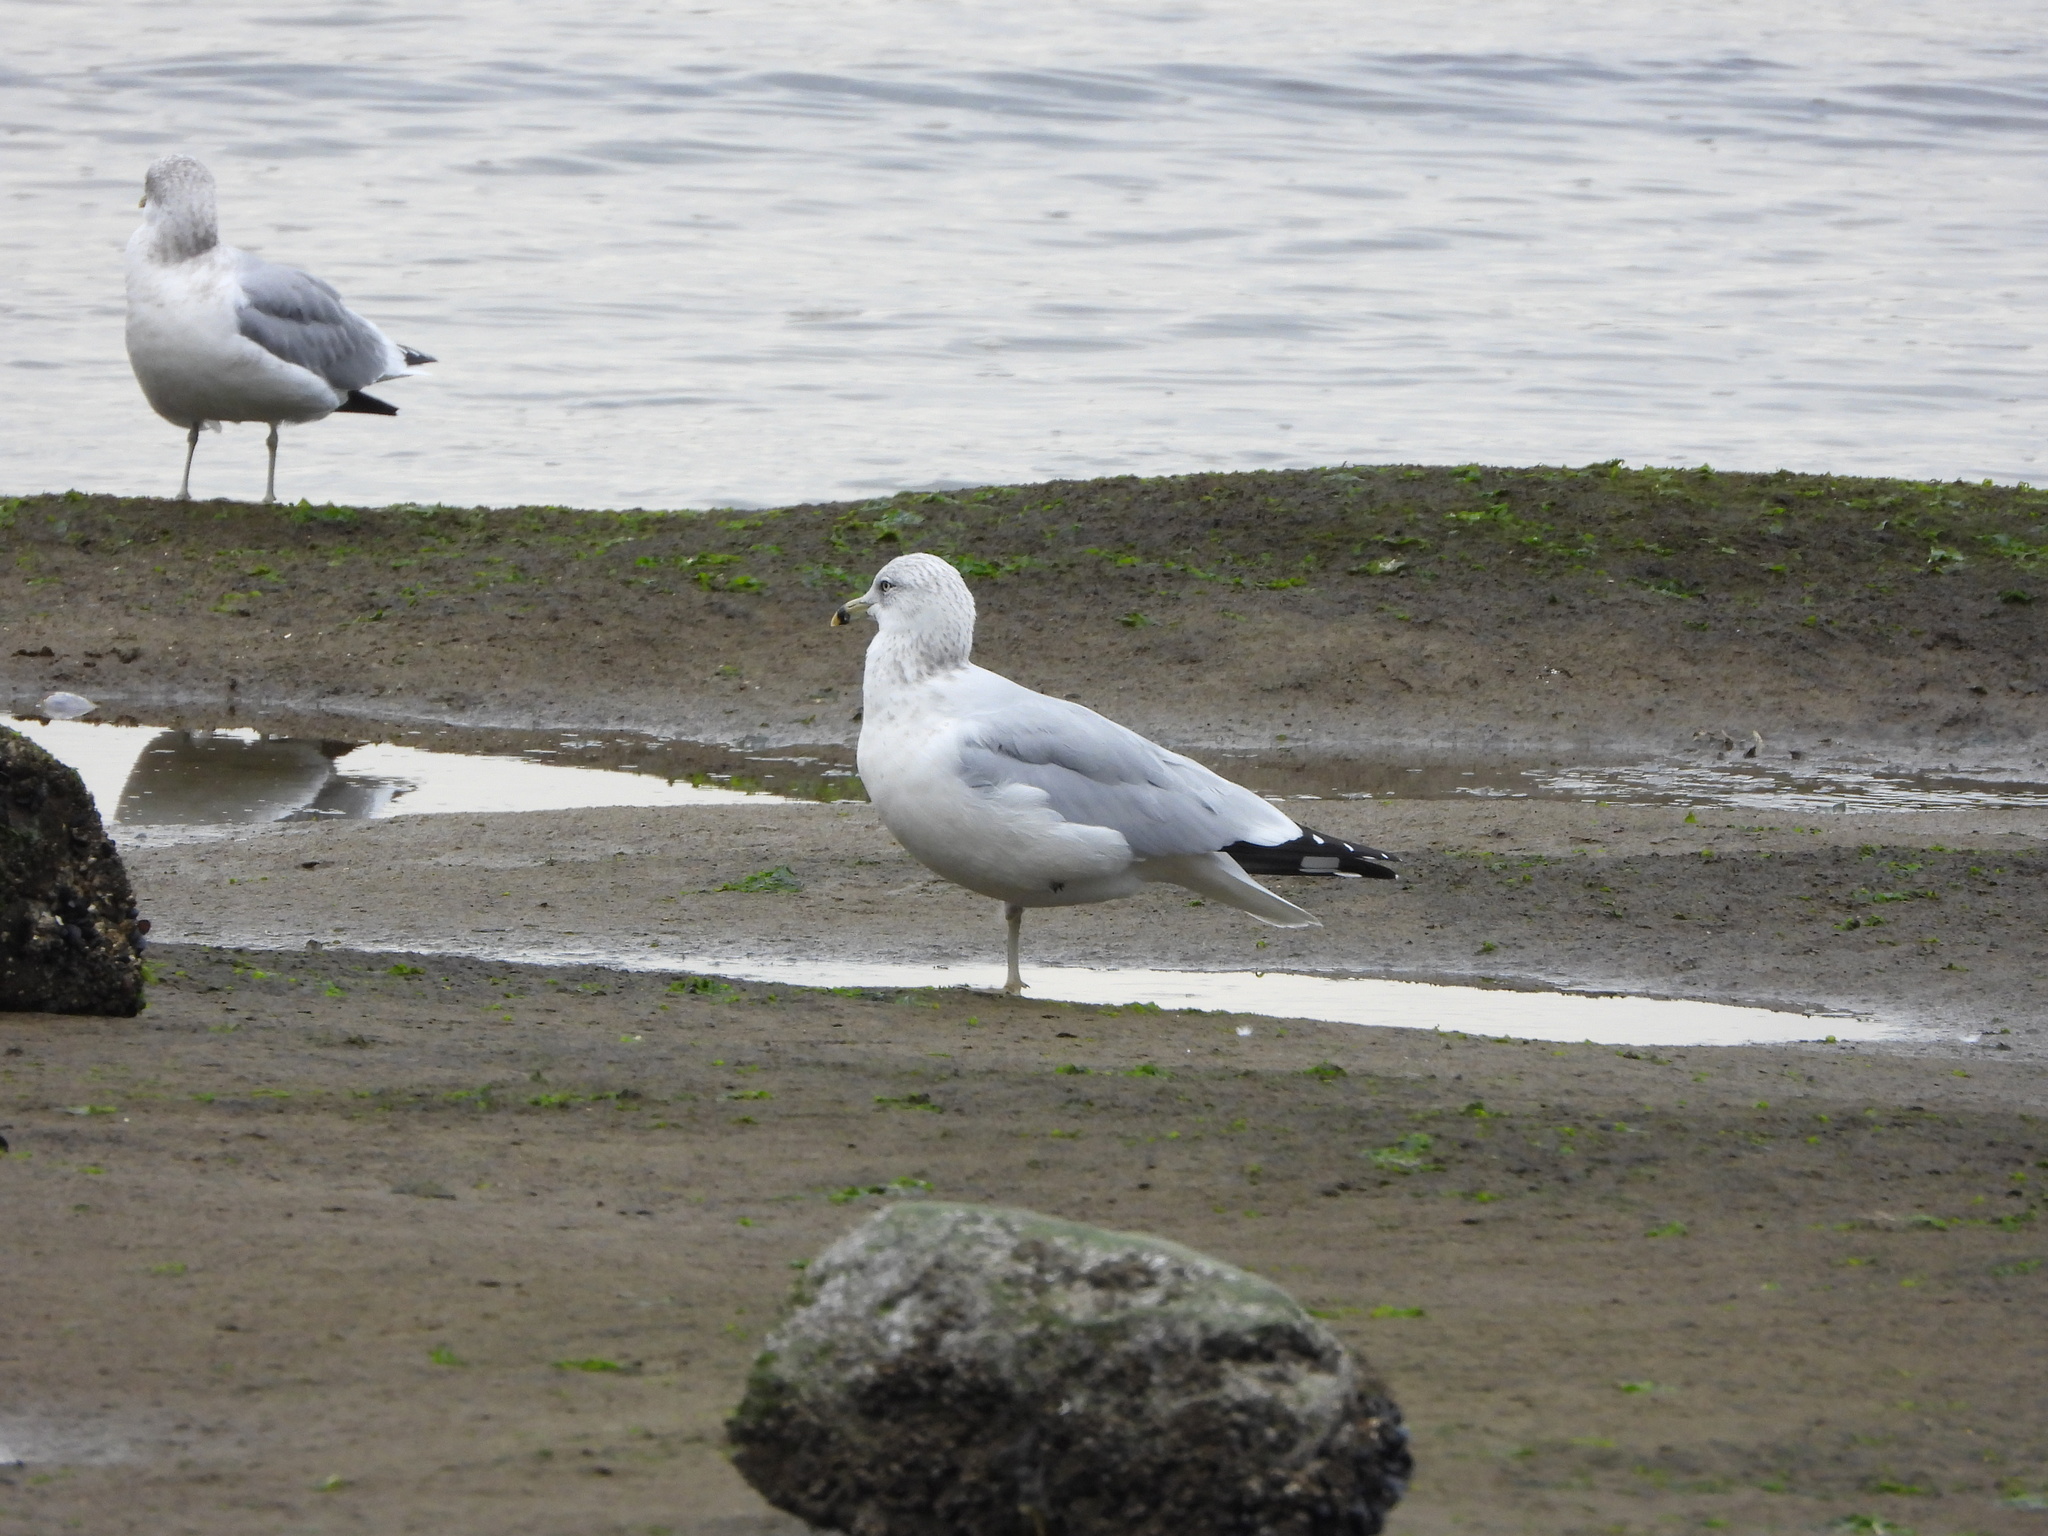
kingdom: Animalia
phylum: Chordata
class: Aves
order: Charadriiformes
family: Laridae
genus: Larus
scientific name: Larus delawarensis
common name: Ring-billed gull
